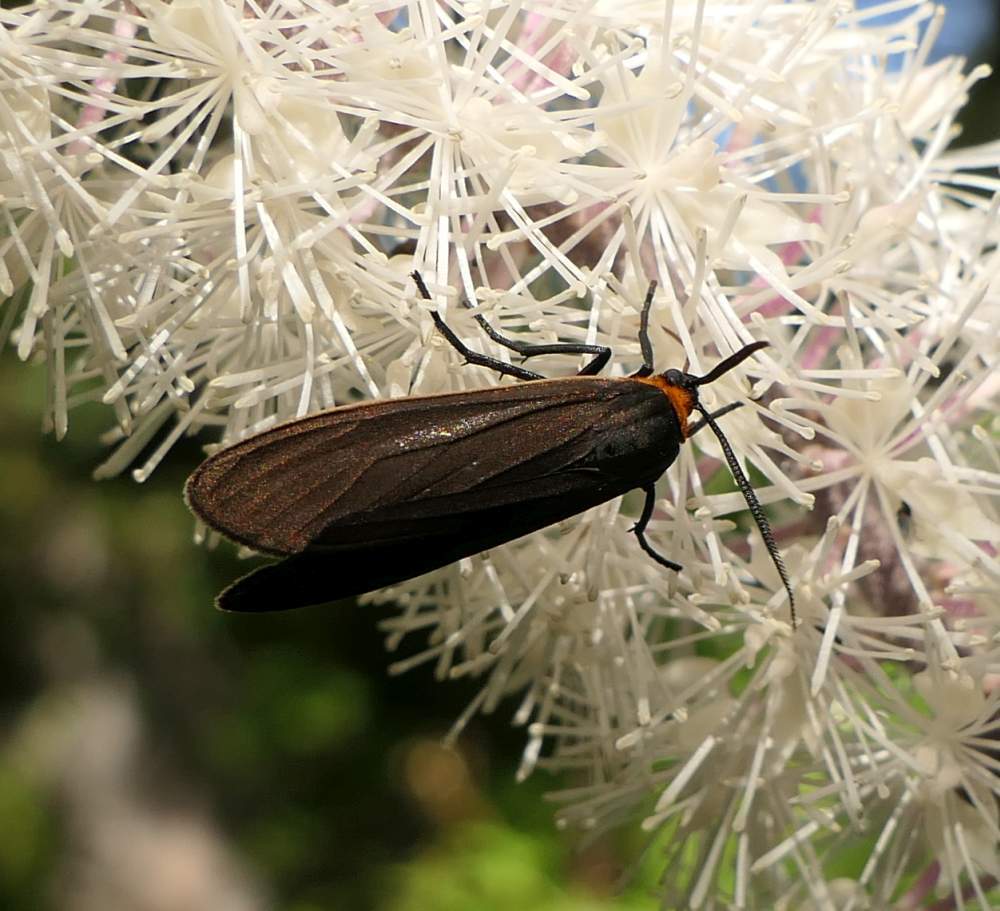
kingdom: Animalia
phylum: Arthropoda
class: Insecta
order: Lepidoptera
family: Erebidae
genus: Cisseps
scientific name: Cisseps fulvicollis
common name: Yellow-collared scape moth
